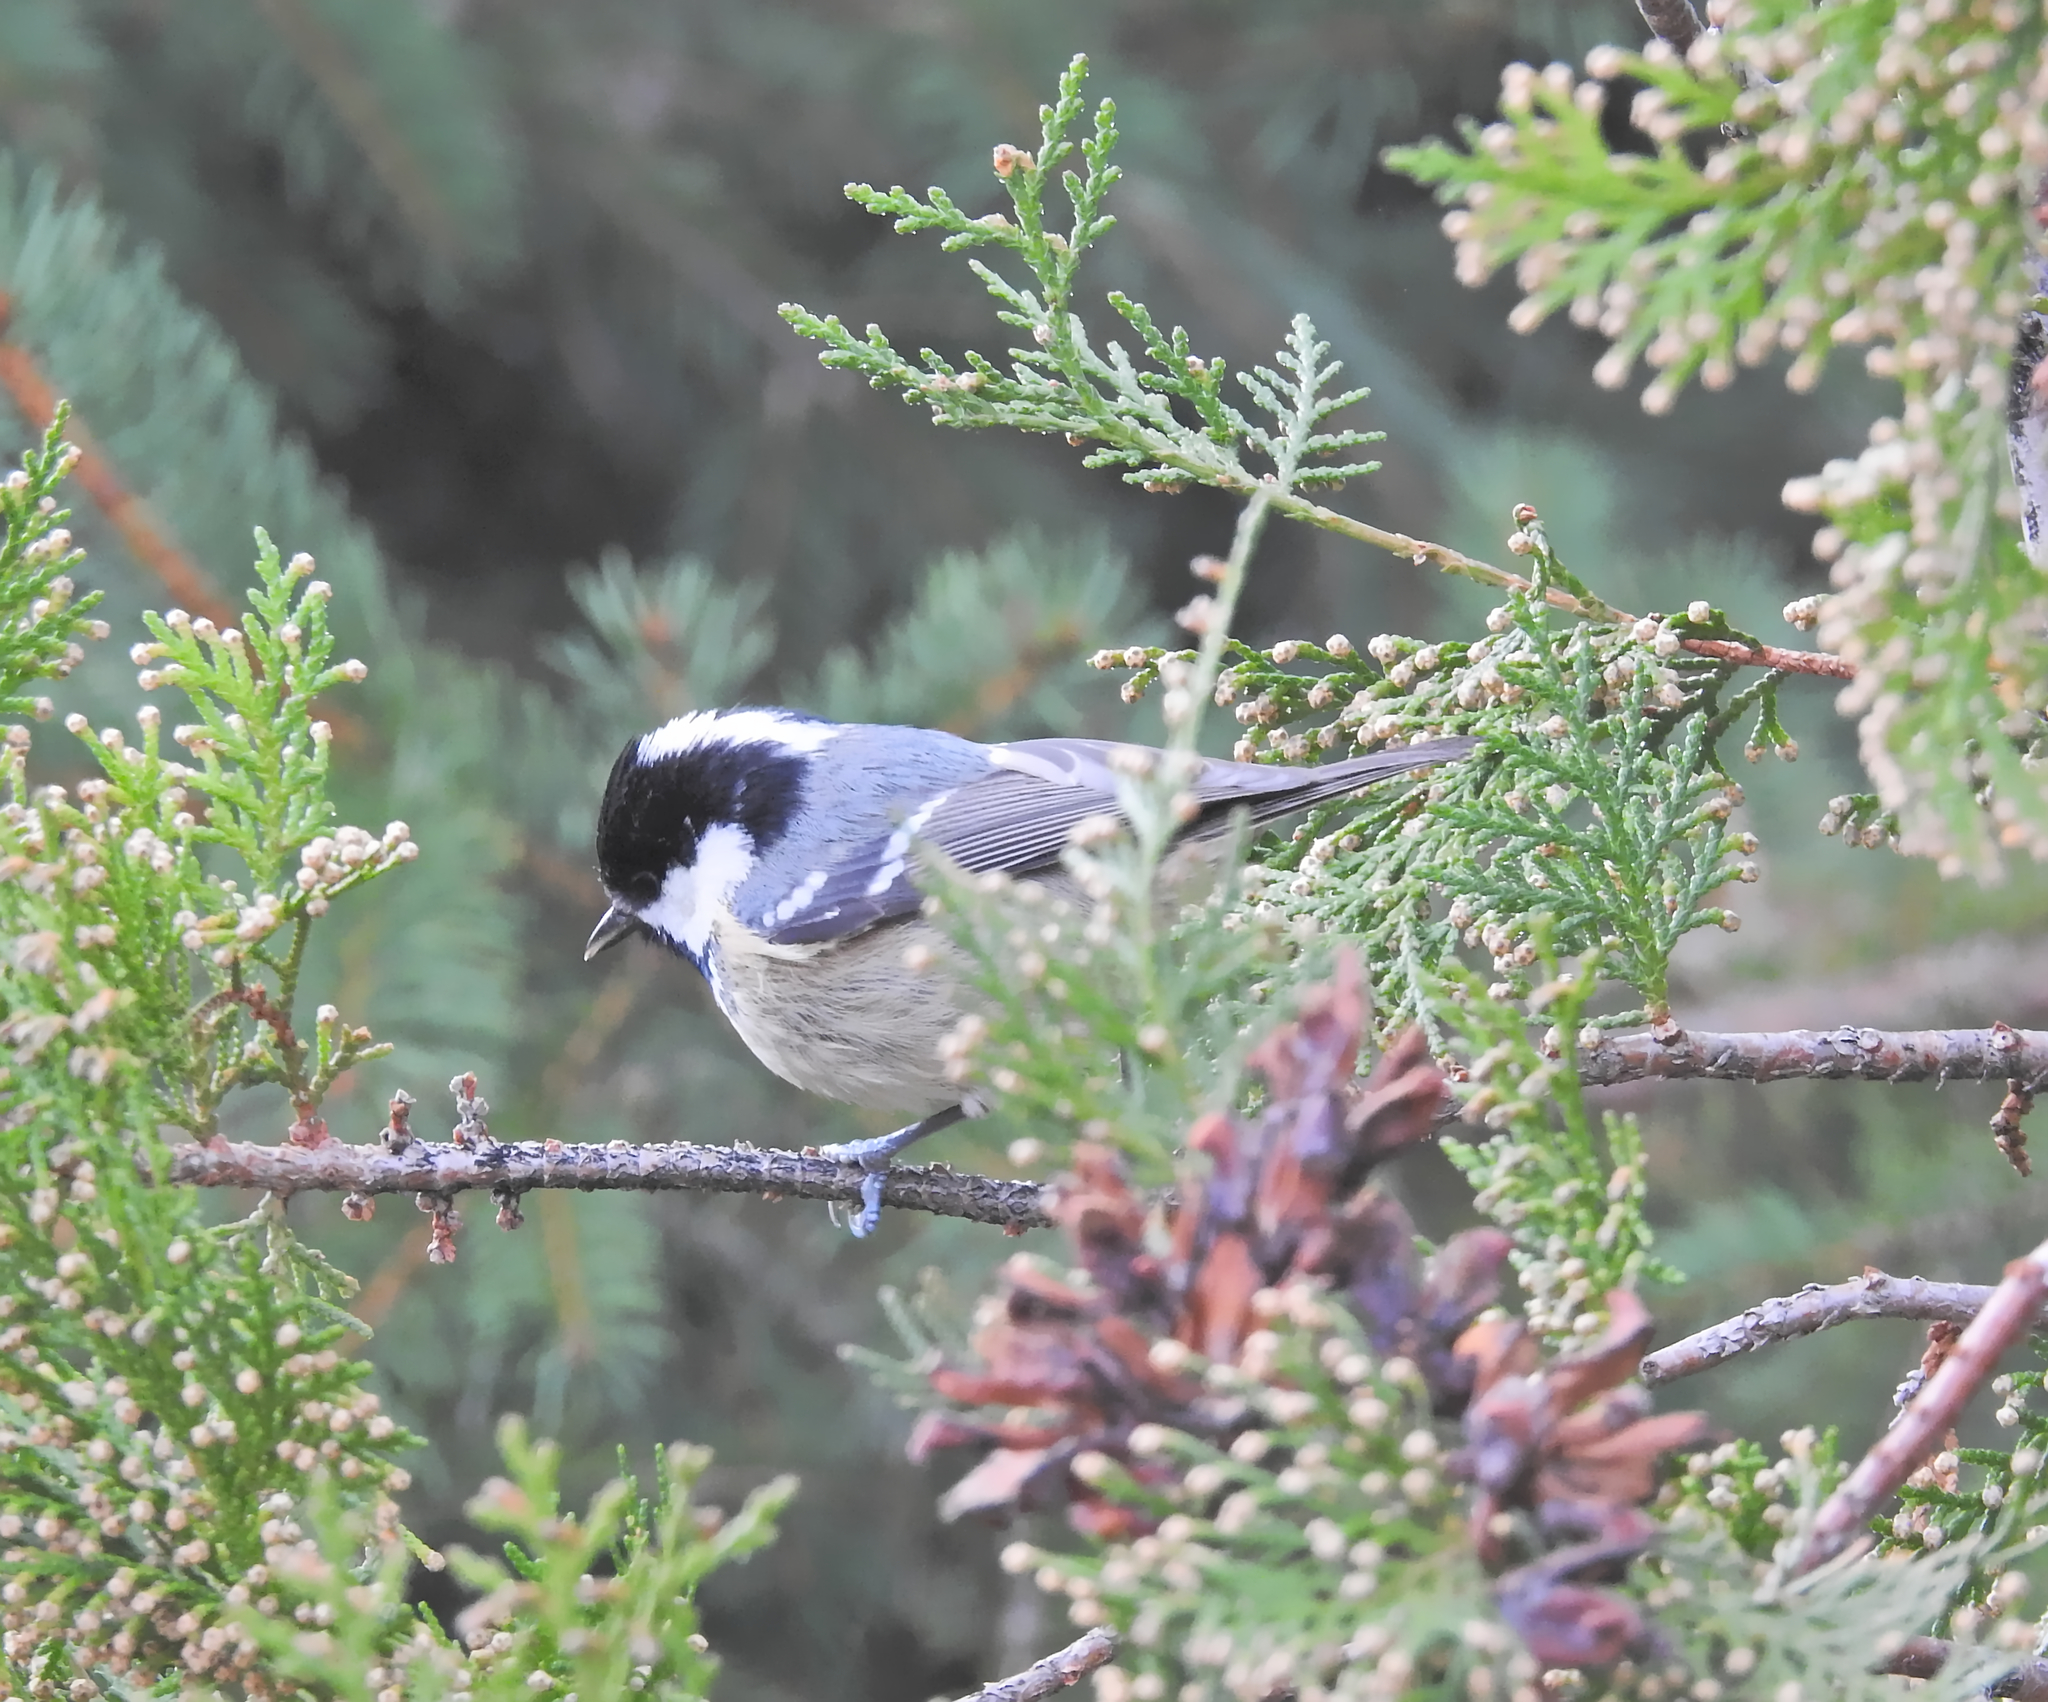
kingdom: Animalia
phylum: Chordata
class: Aves
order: Passeriformes
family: Paridae
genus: Periparus
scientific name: Periparus ater
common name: Coal tit
